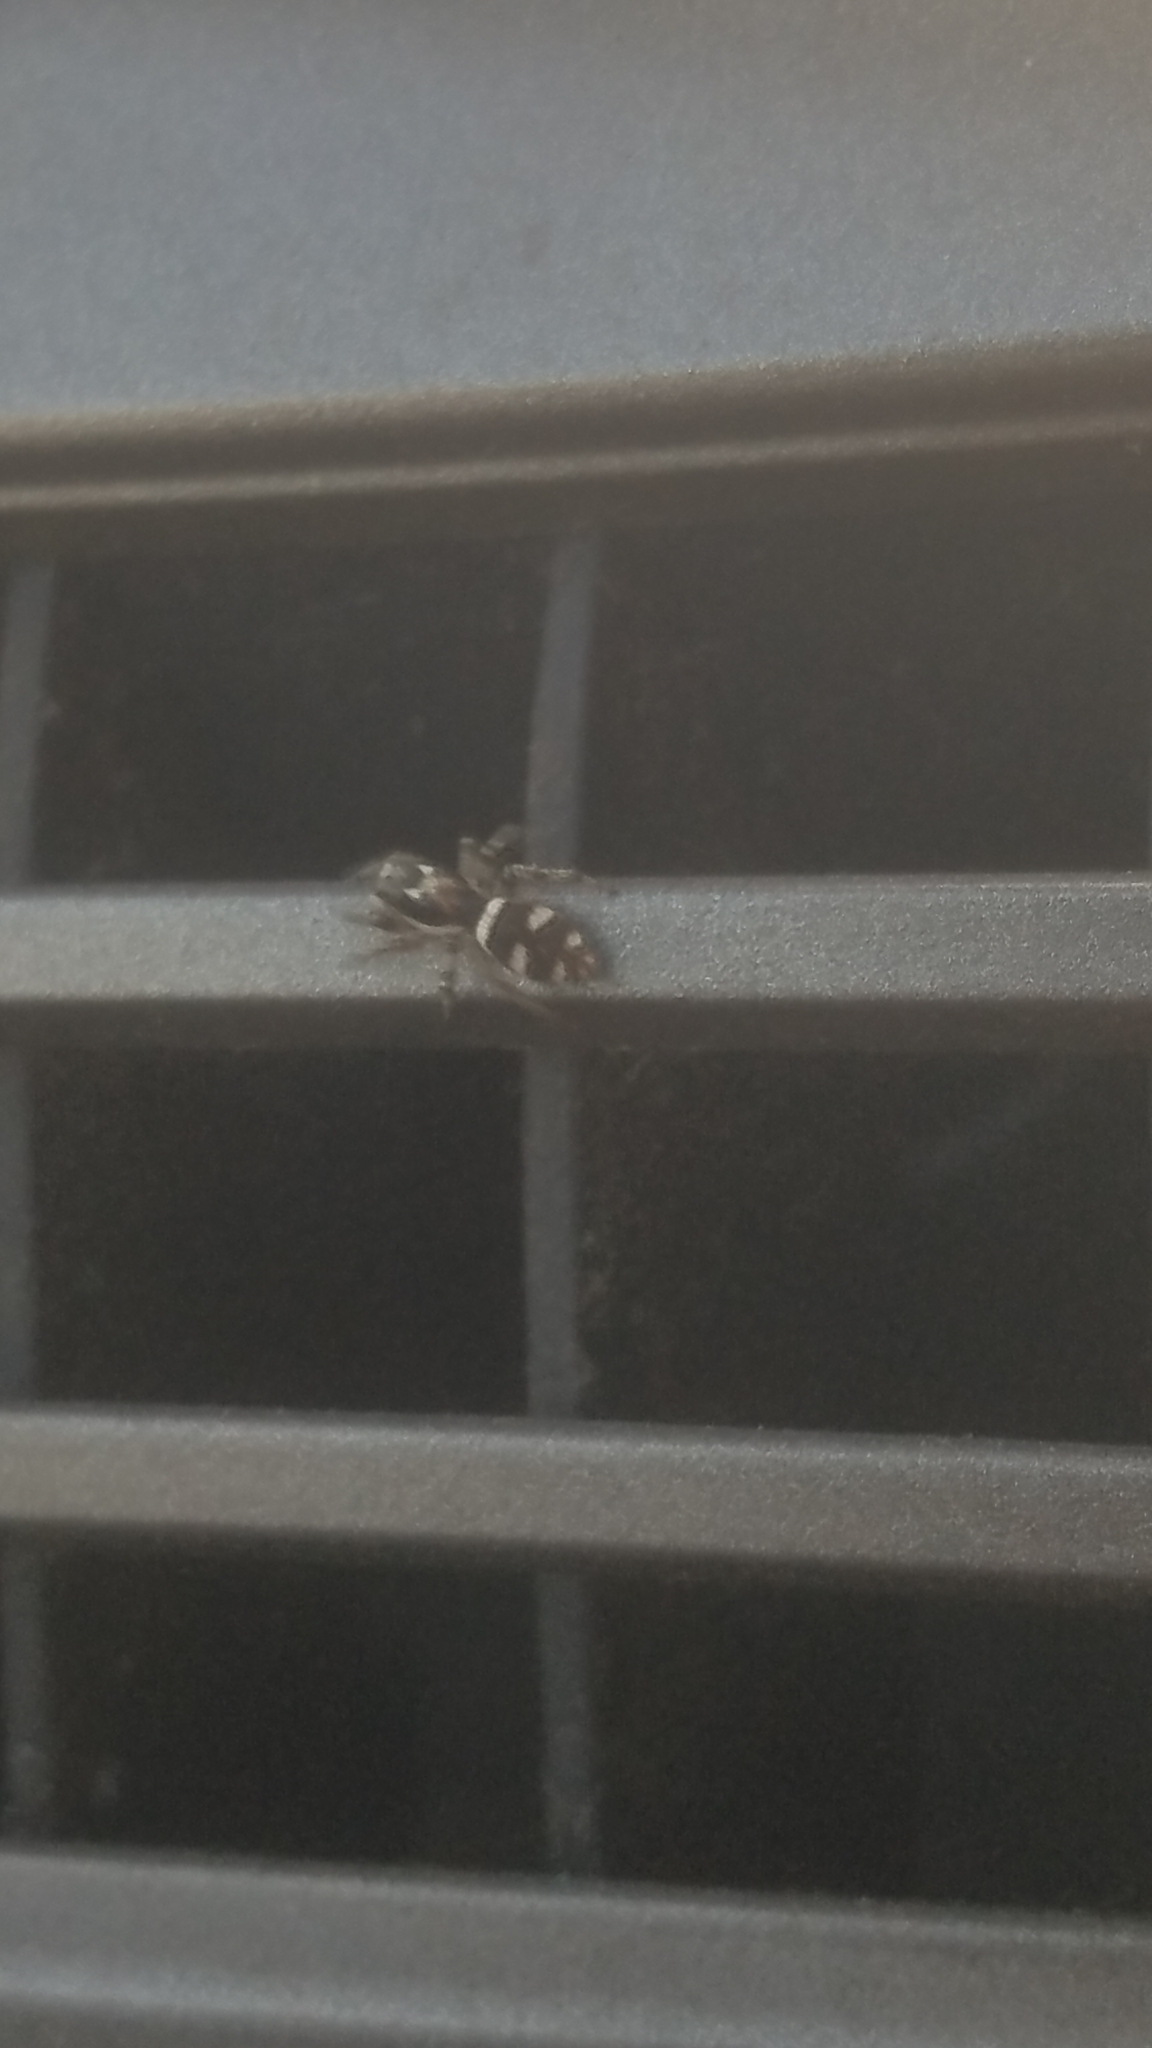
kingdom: Animalia
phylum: Arthropoda
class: Arachnida
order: Araneae
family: Salticidae
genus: Salticus
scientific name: Salticus scenicus
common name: Zebra jumper
